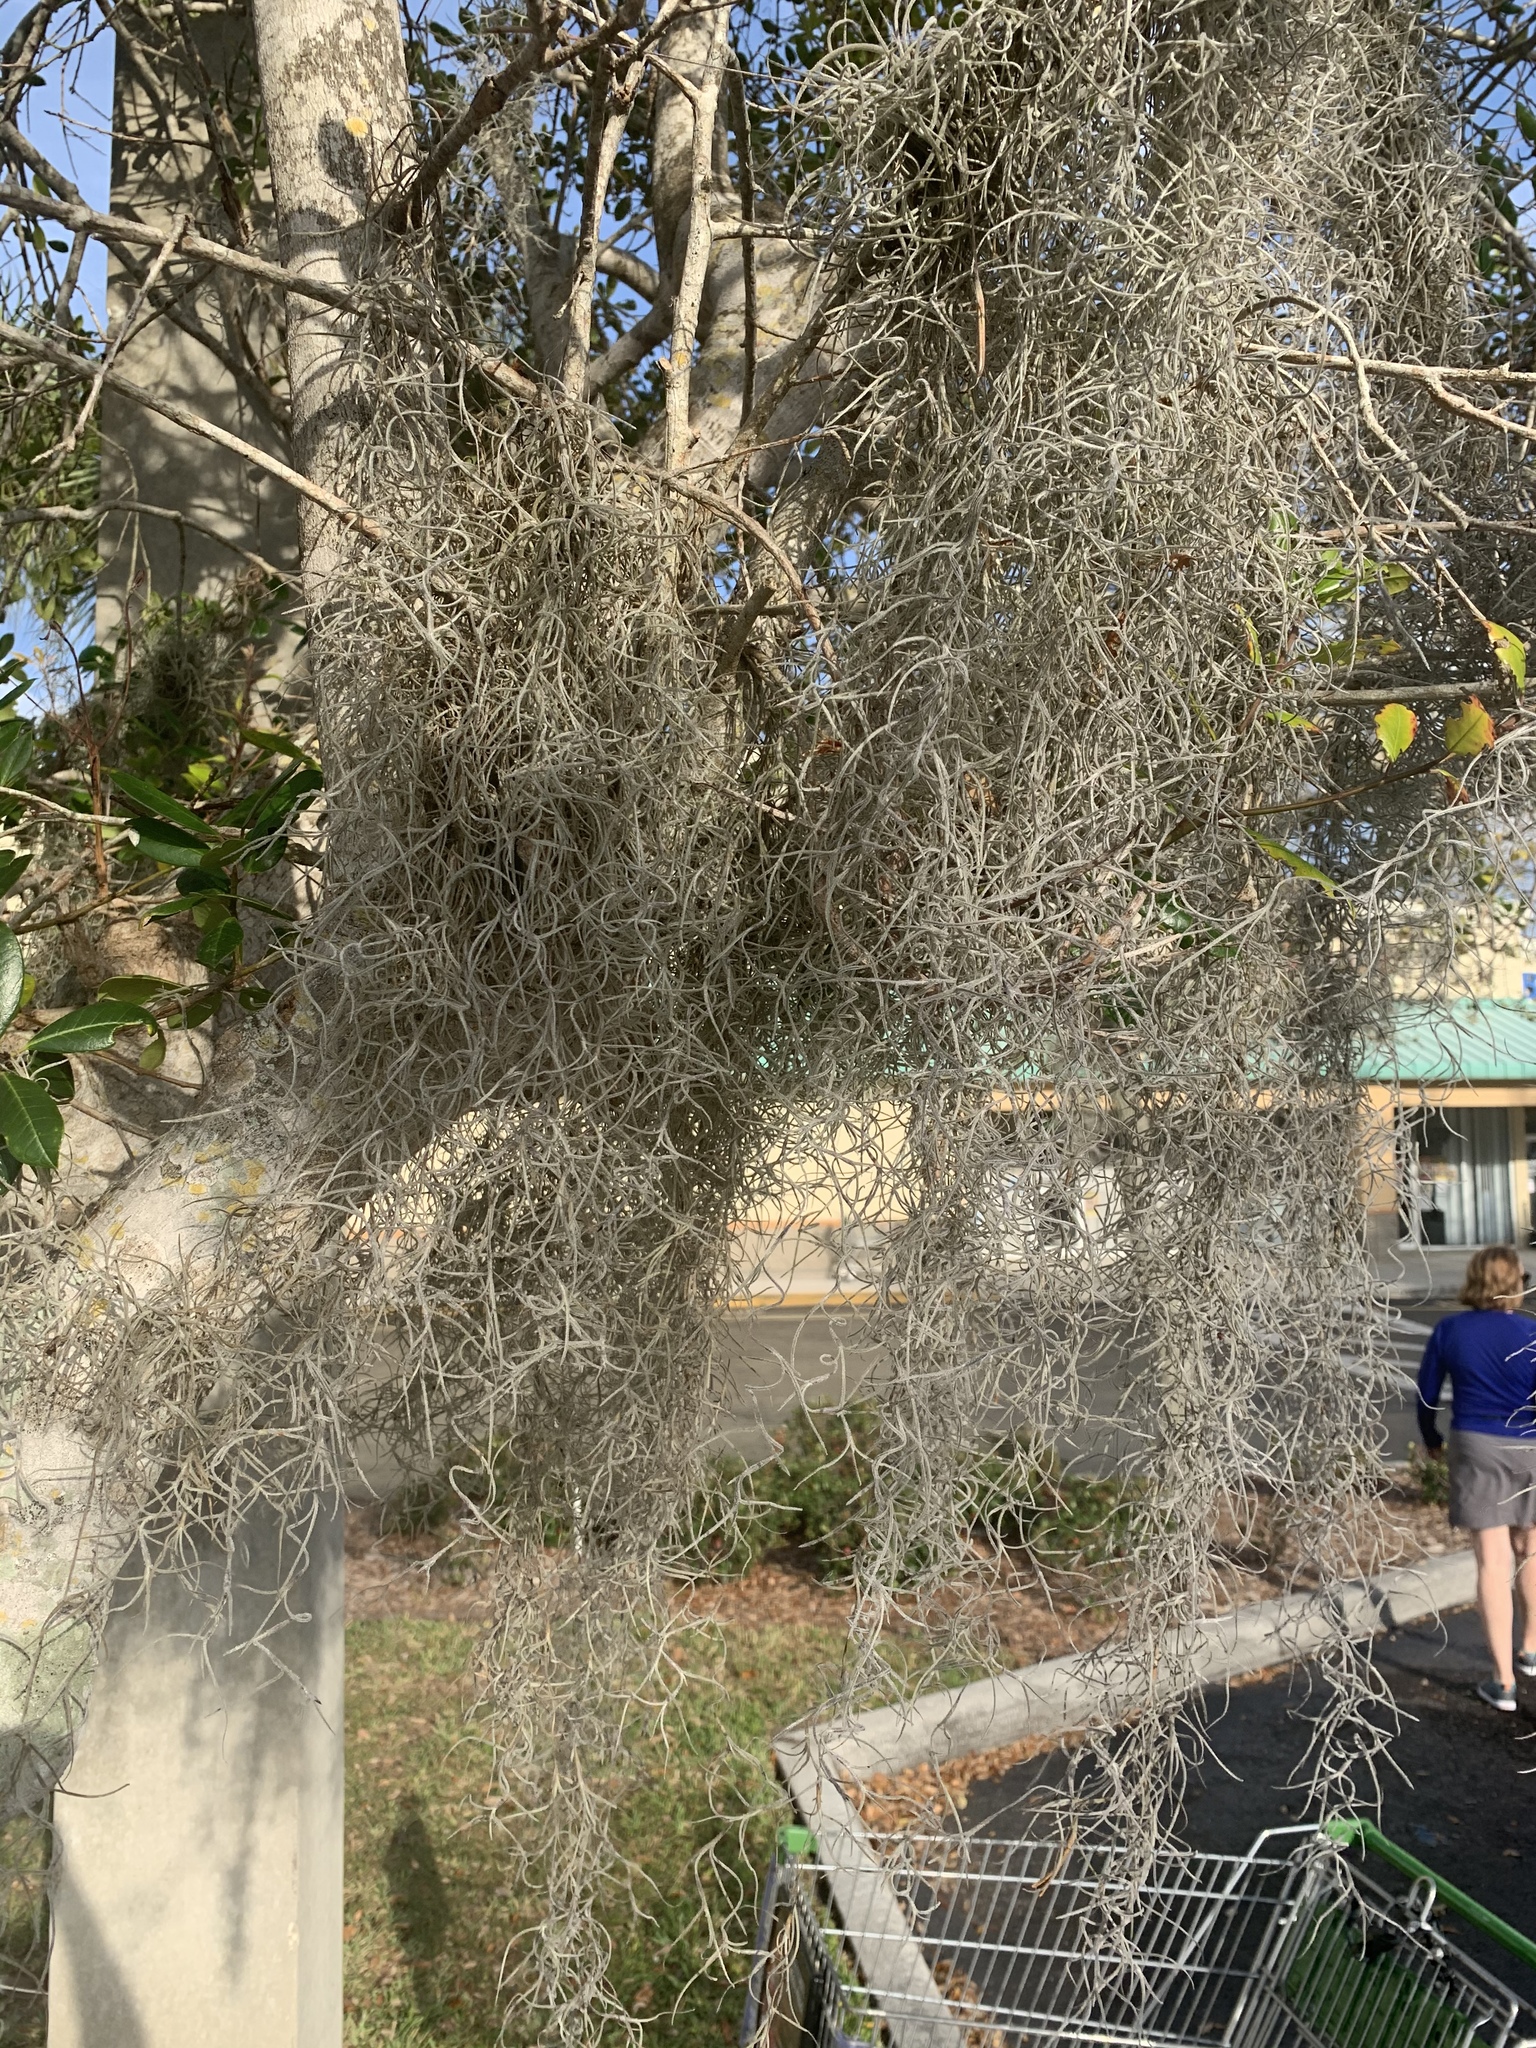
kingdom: Plantae
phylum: Tracheophyta
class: Liliopsida
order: Poales
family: Bromeliaceae
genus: Tillandsia
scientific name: Tillandsia usneoides
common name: Spanish moss
